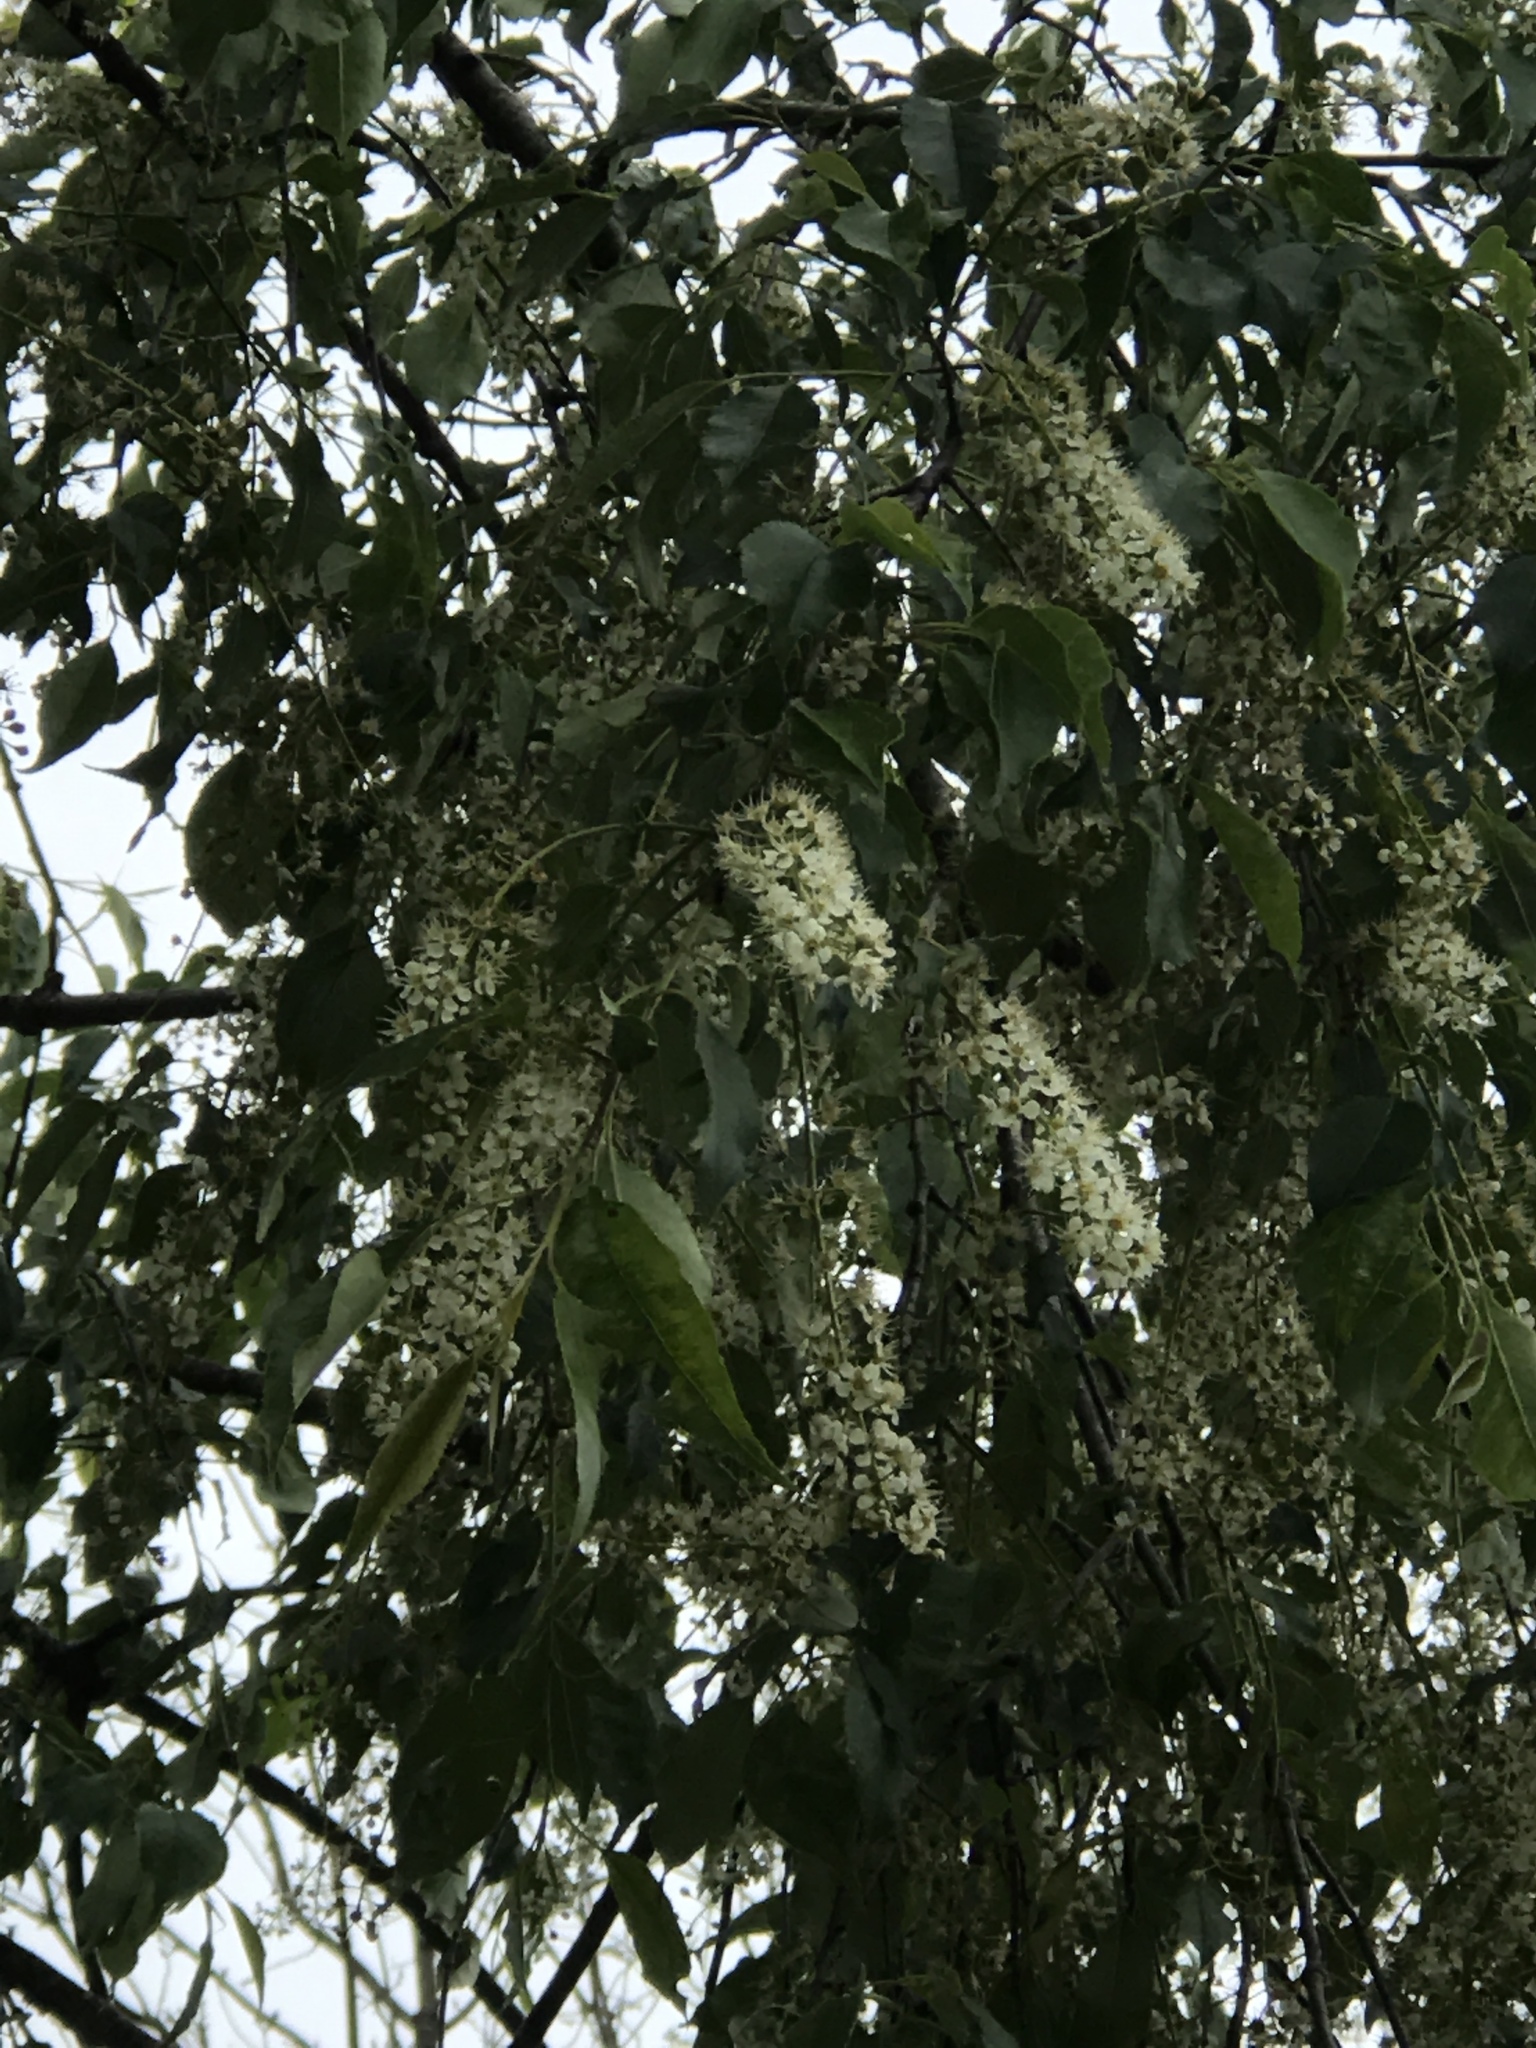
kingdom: Plantae
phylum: Tracheophyta
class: Magnoliopsida
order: Rosales
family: Rosaceae
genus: Prunus
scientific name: Prunus serotina
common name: Black cherry
